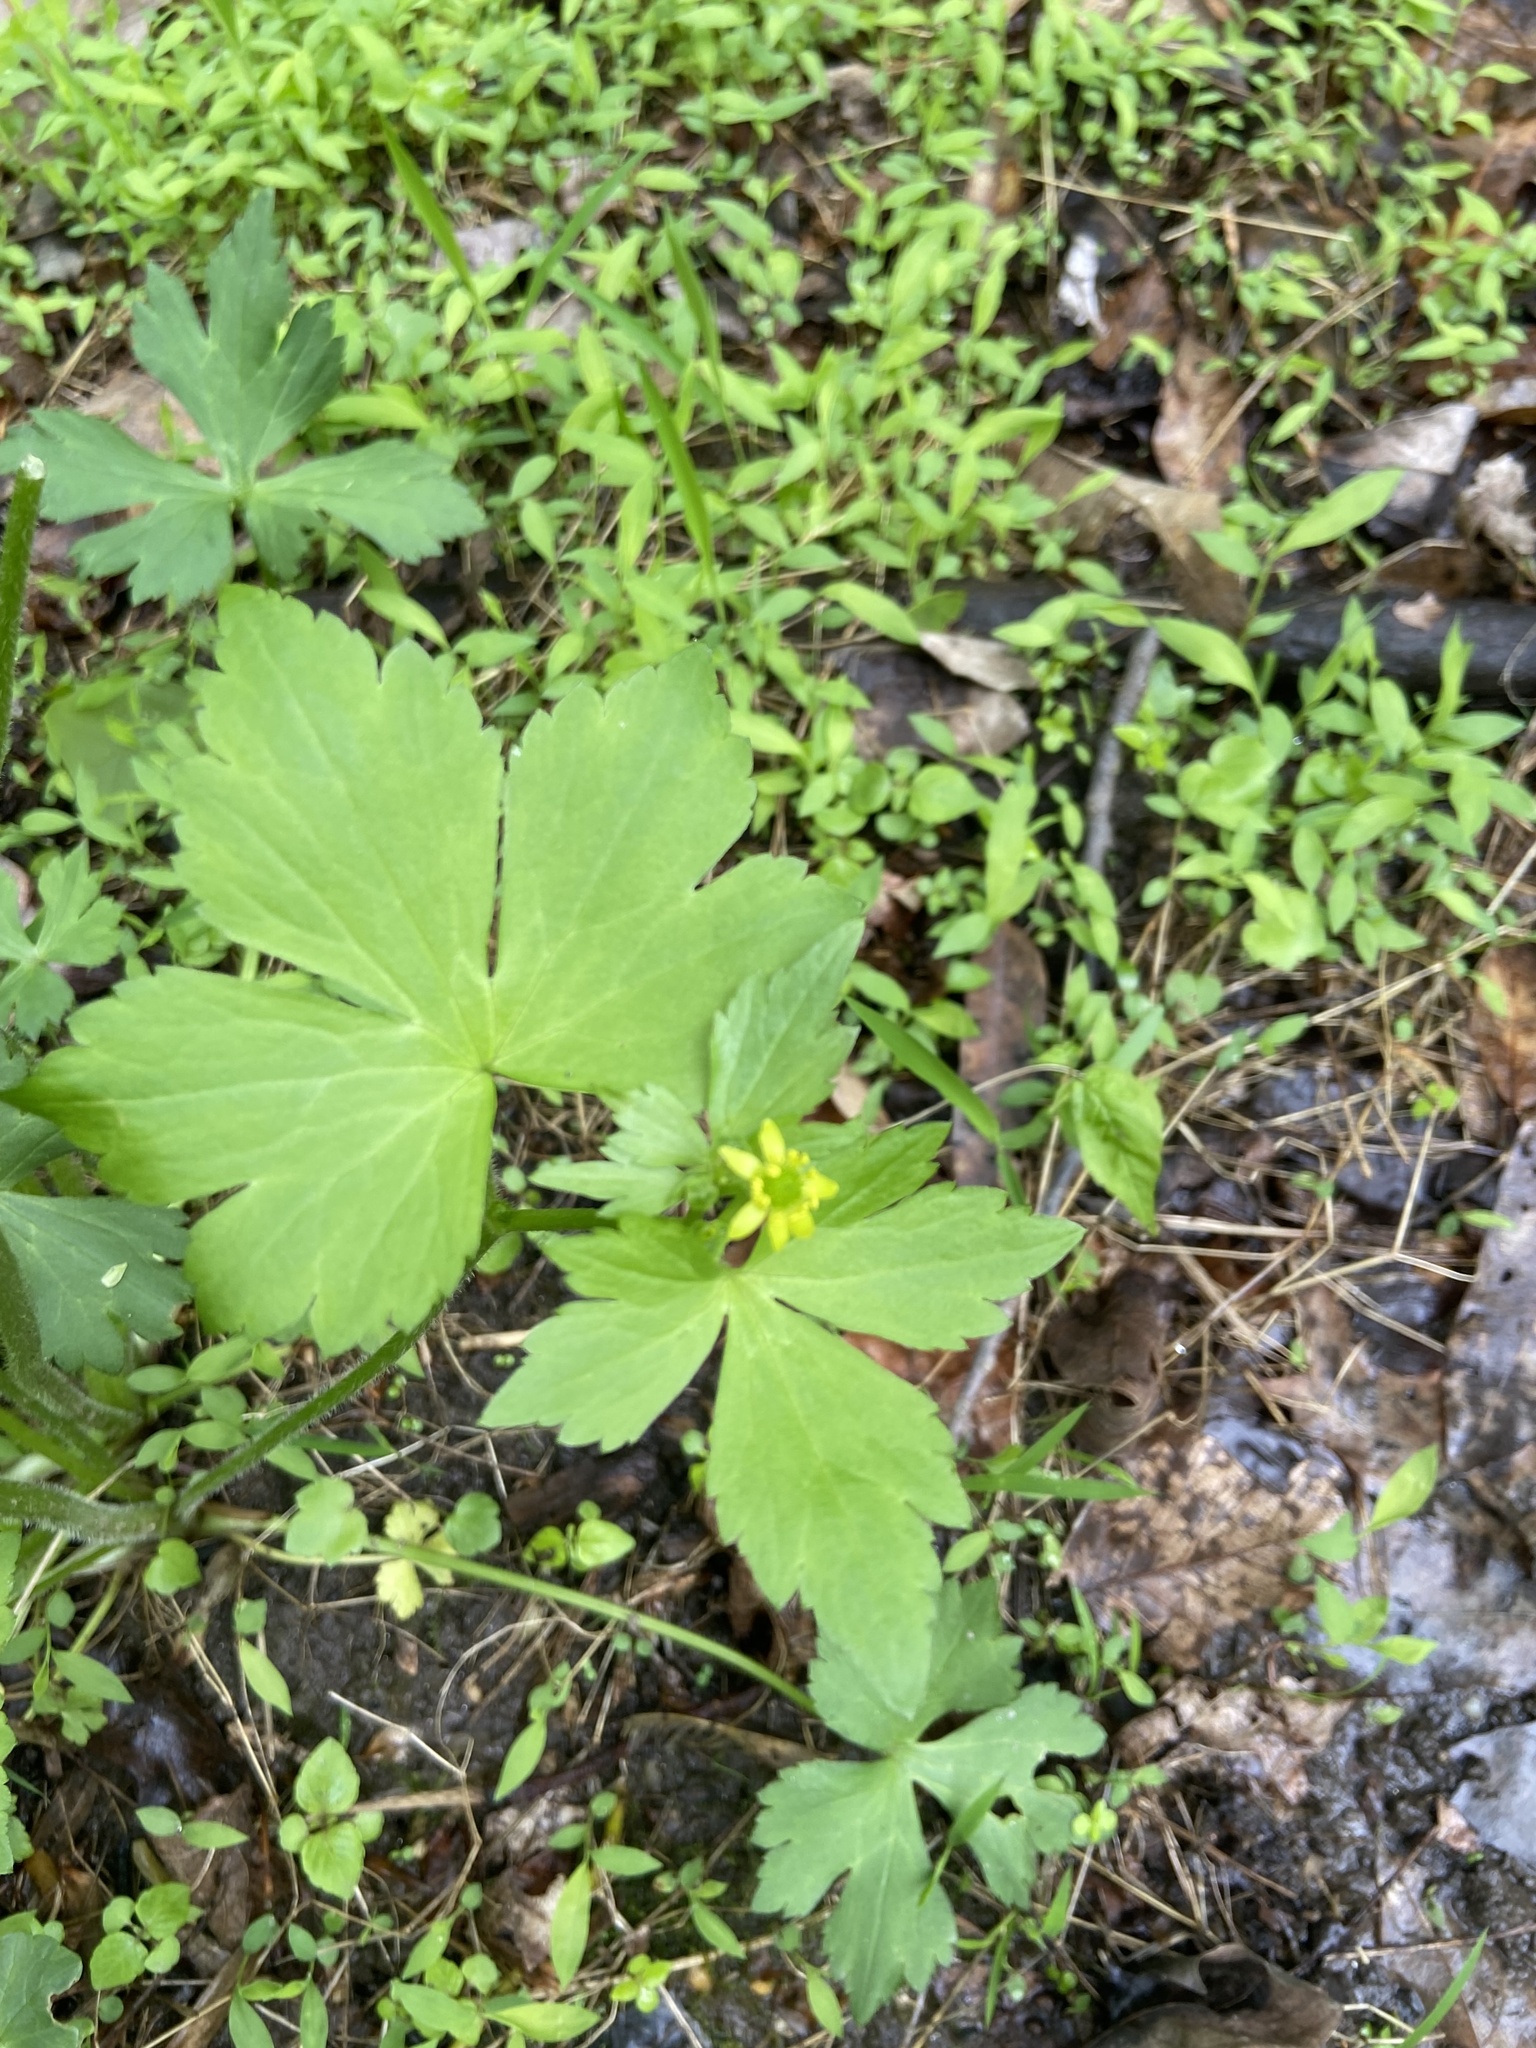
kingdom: Plantae
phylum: Tracheophyta
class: Magnoliopsida
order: Ranunculales
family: Ranunculaceae
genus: Ranunculus
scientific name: Ranunculus recurvatus
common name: Blisterwort
